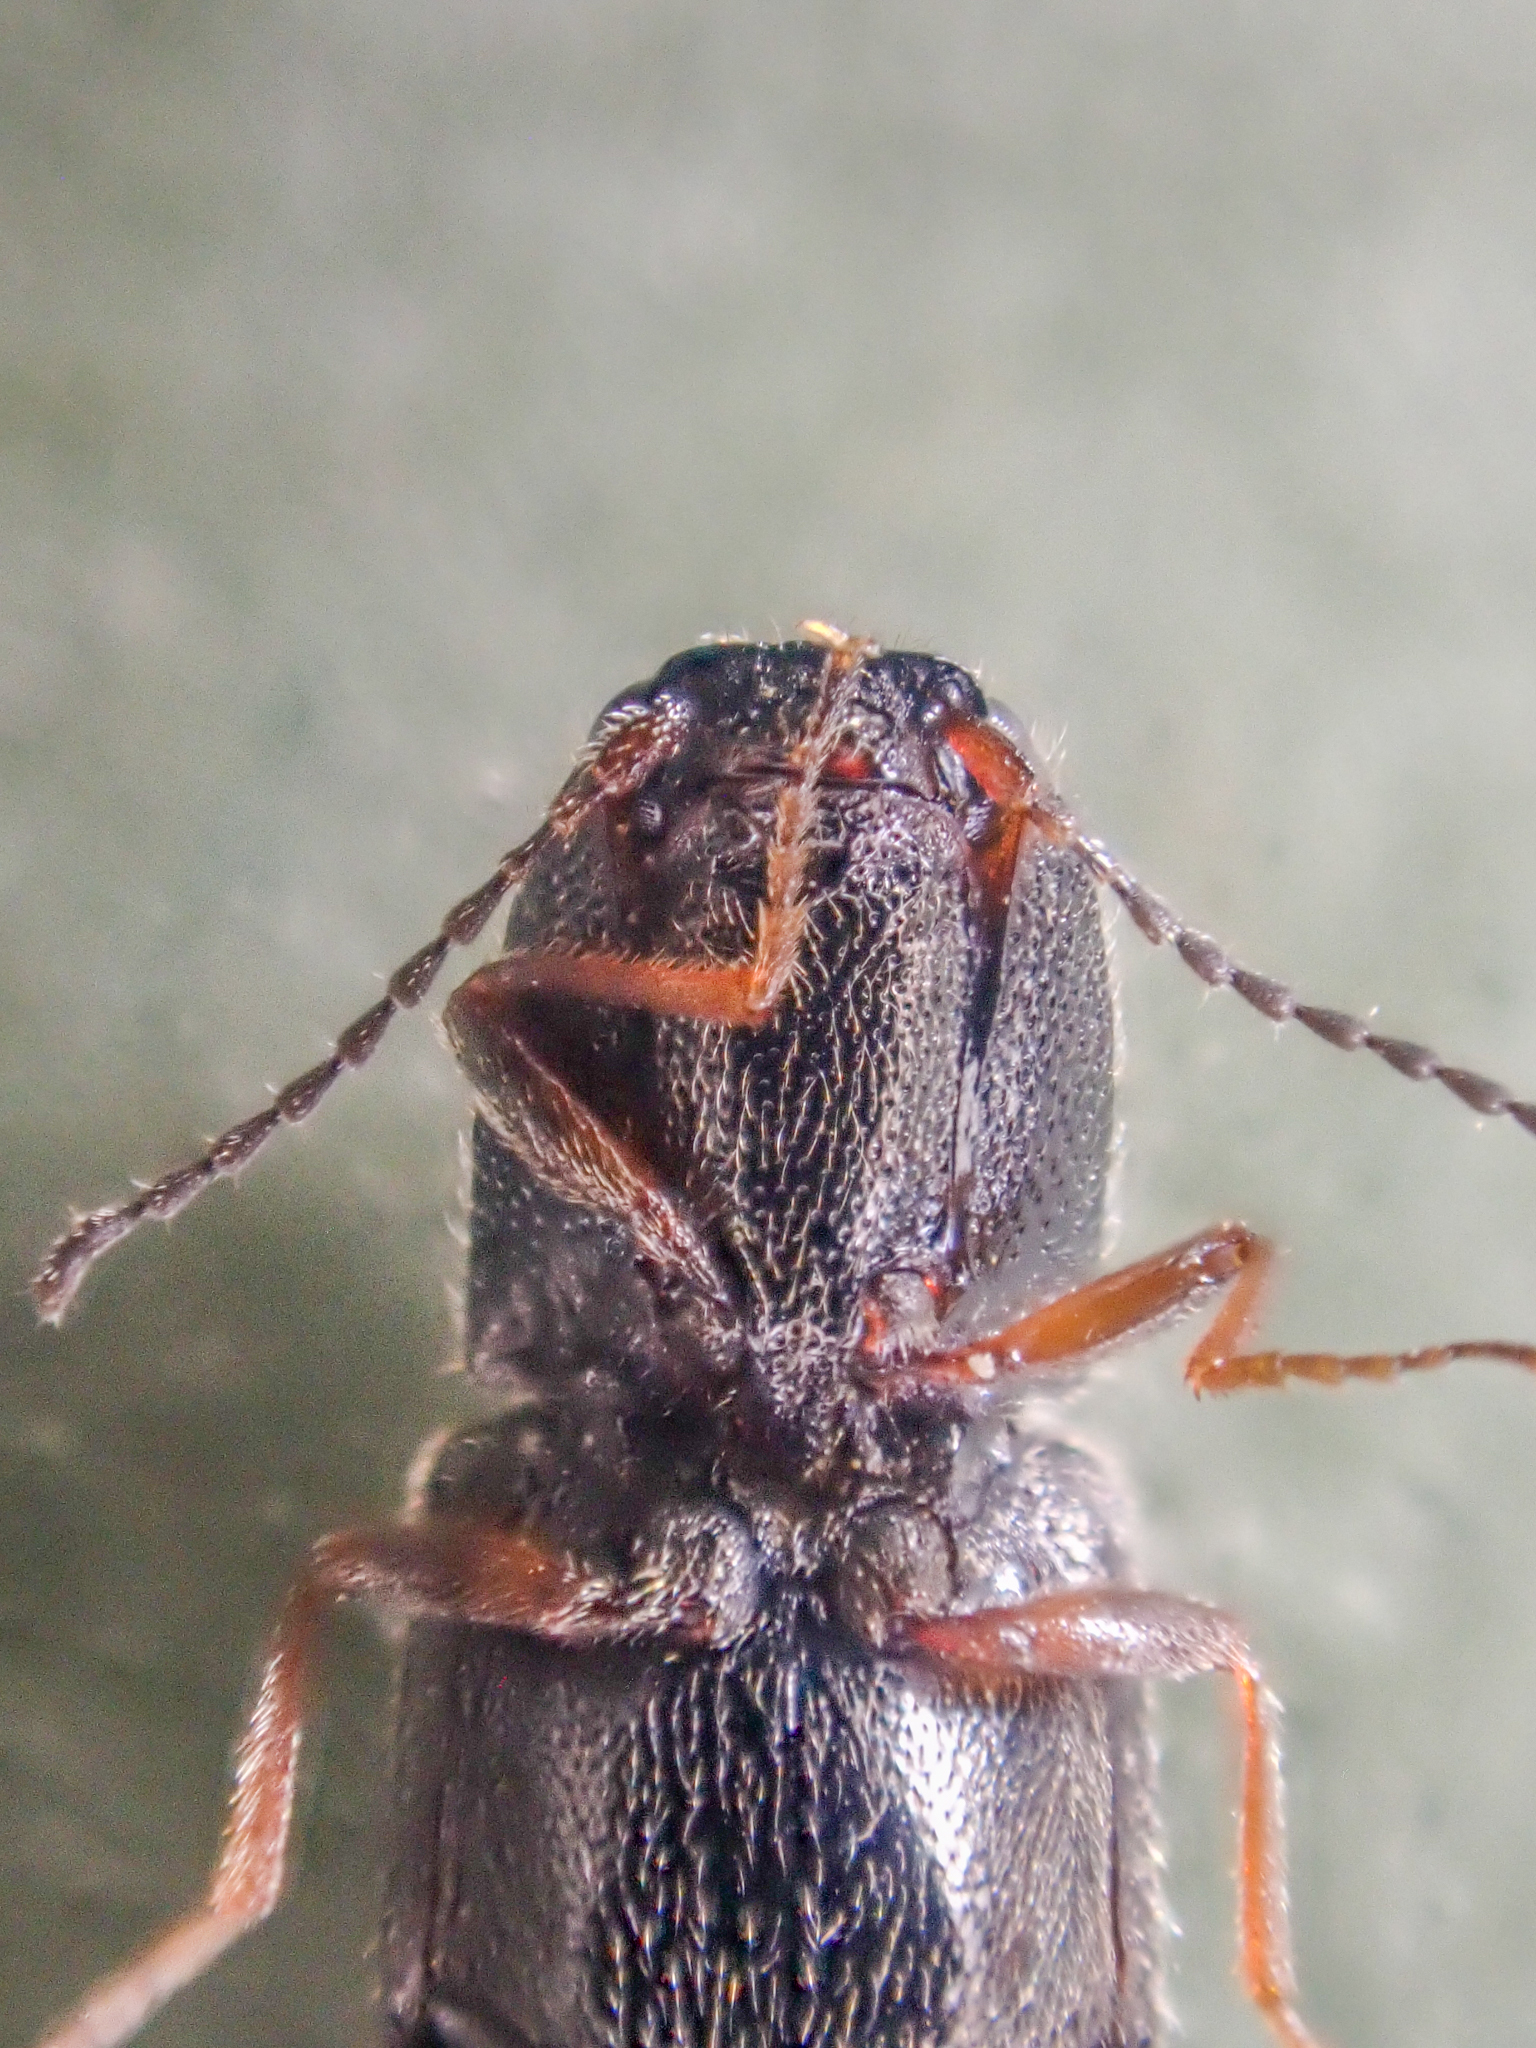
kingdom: Animalia
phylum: Arthropoda
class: Insecta
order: Coleoptera
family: Elateridae
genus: Limonius
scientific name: Limonius aeger
